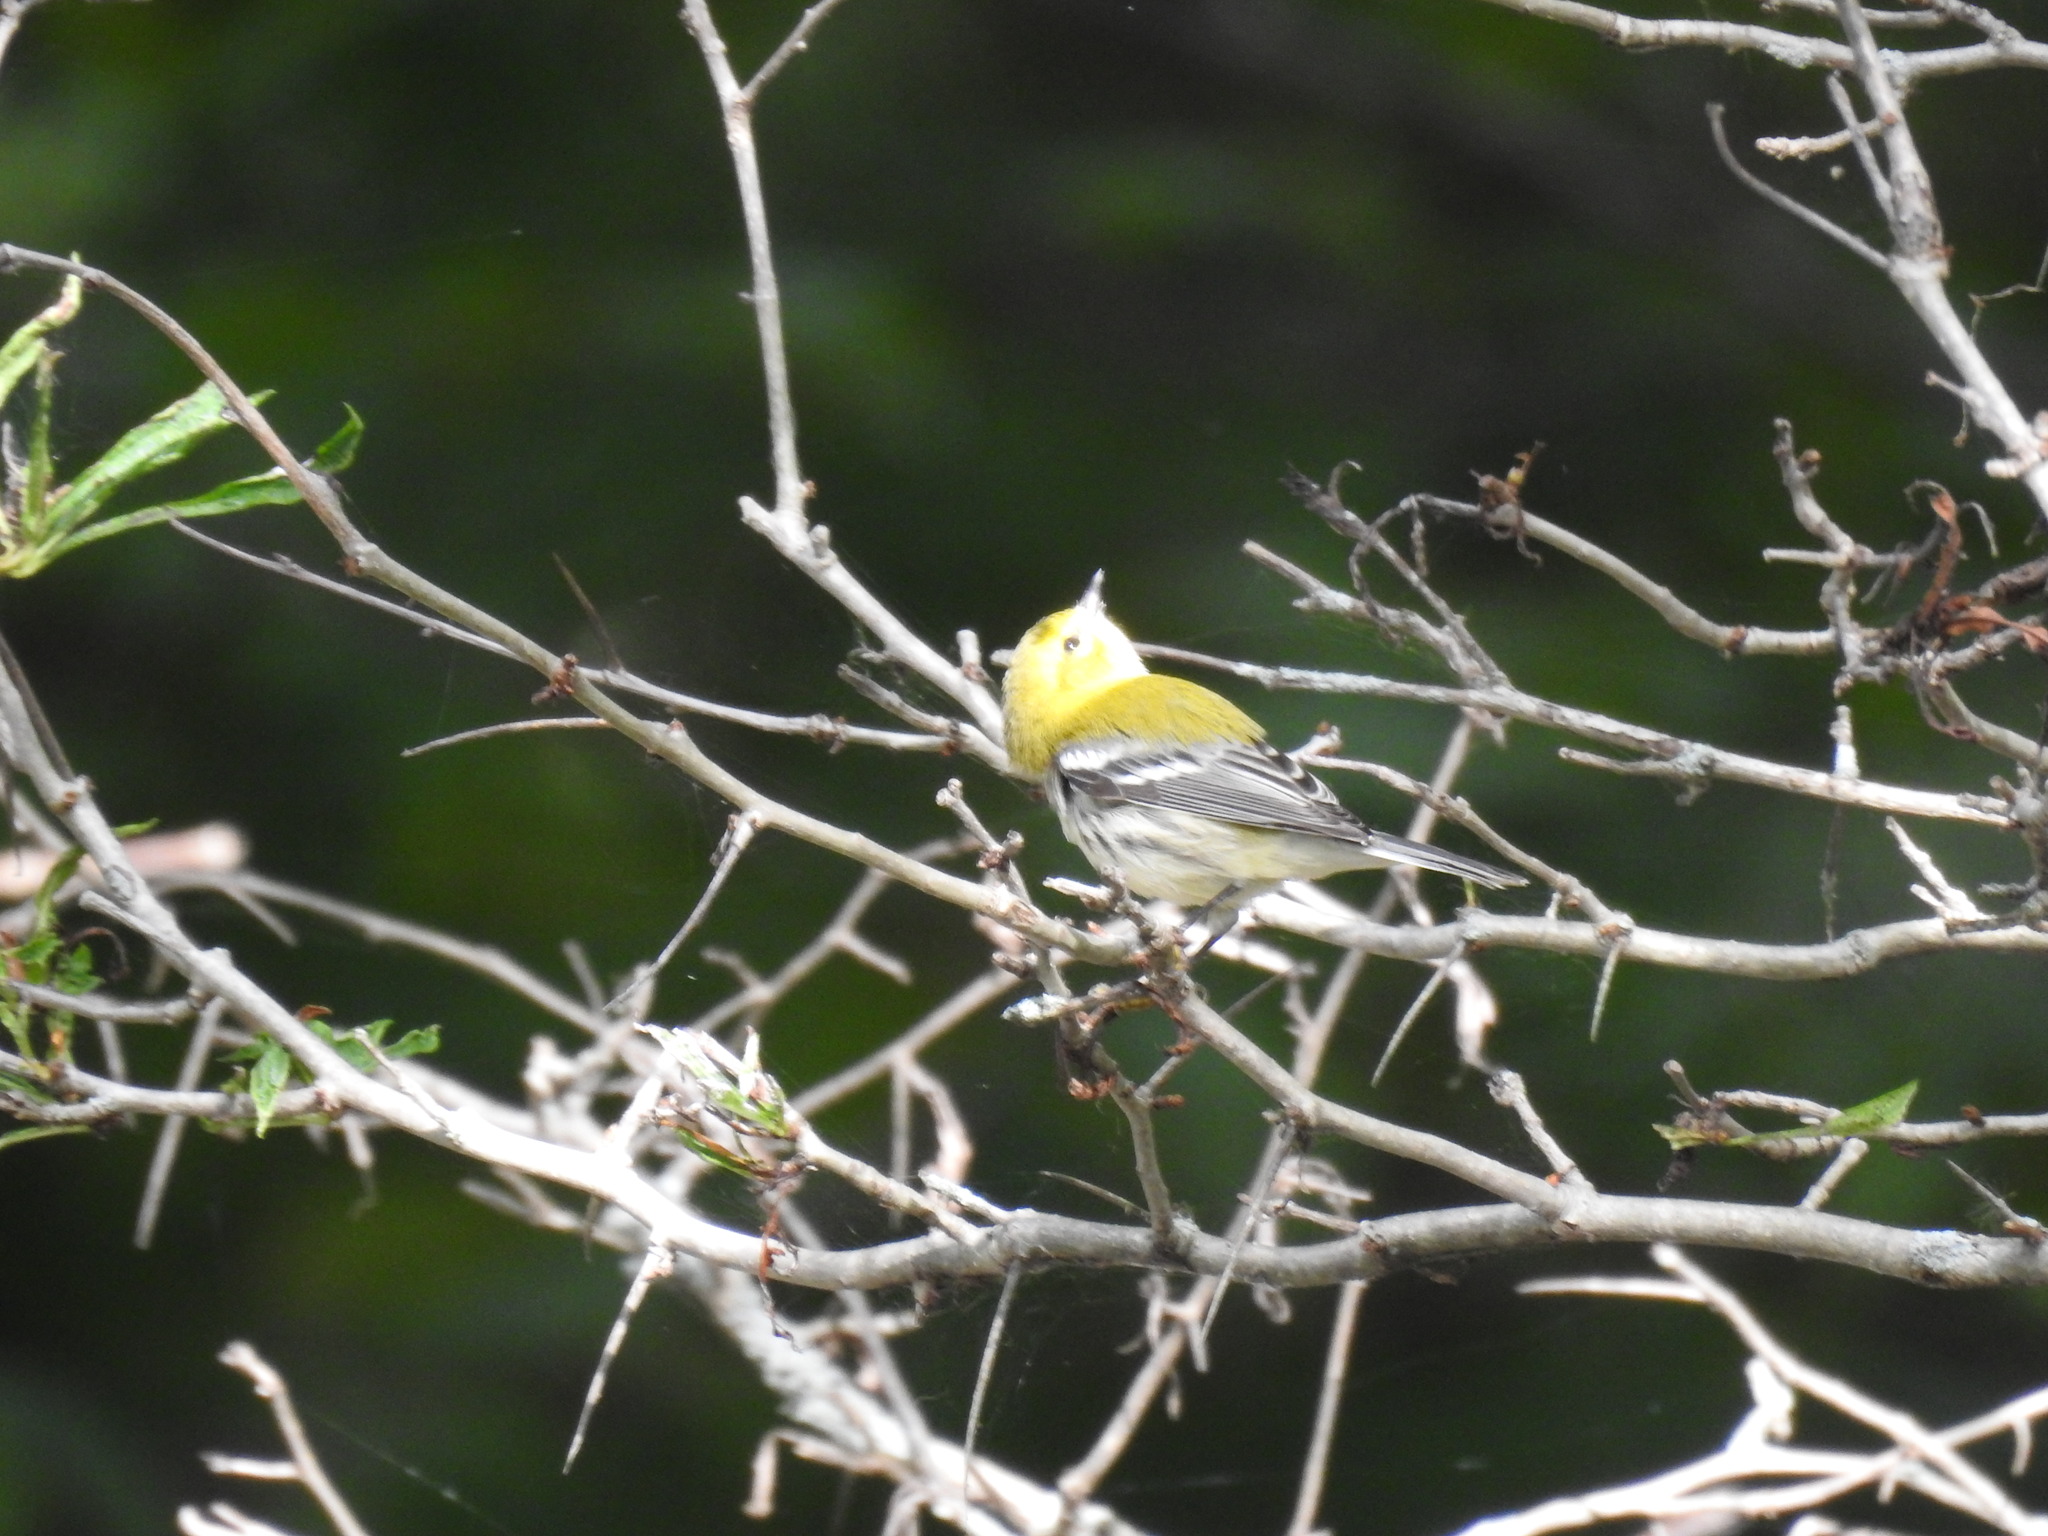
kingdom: Animalia
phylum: Chordata
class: Aves
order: Passeriformes
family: Parulidae
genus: Setophaga
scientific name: Setophaga virens
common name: Black-throated green warbler
